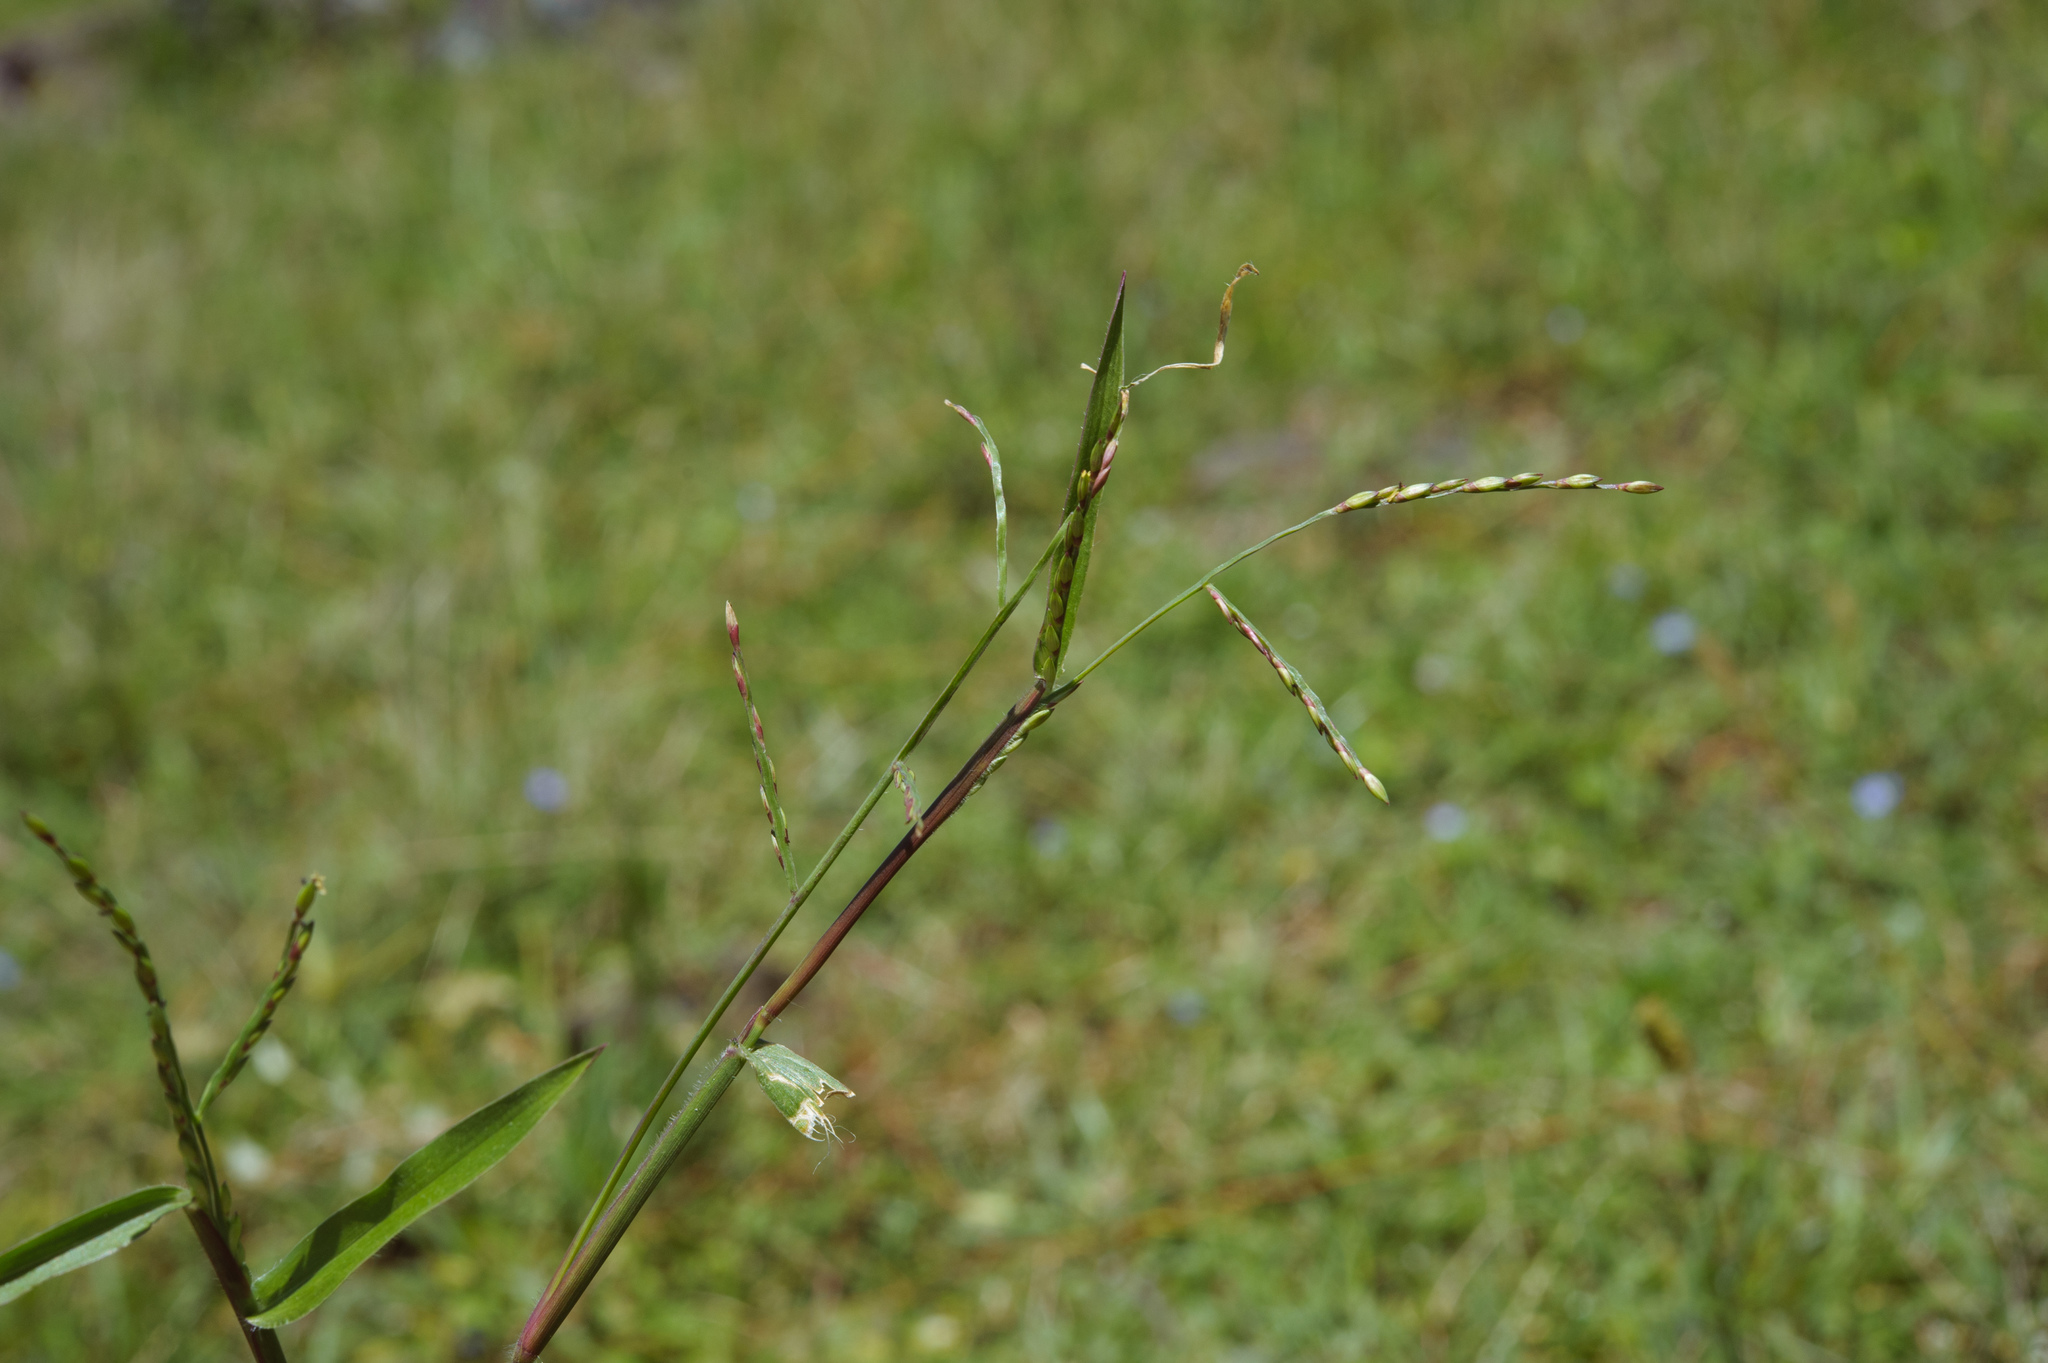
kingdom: Plantae
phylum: Tracheophyta
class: Liliopsida
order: Poales
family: Poaceae
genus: Urochloa
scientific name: Urochloa distachyos
